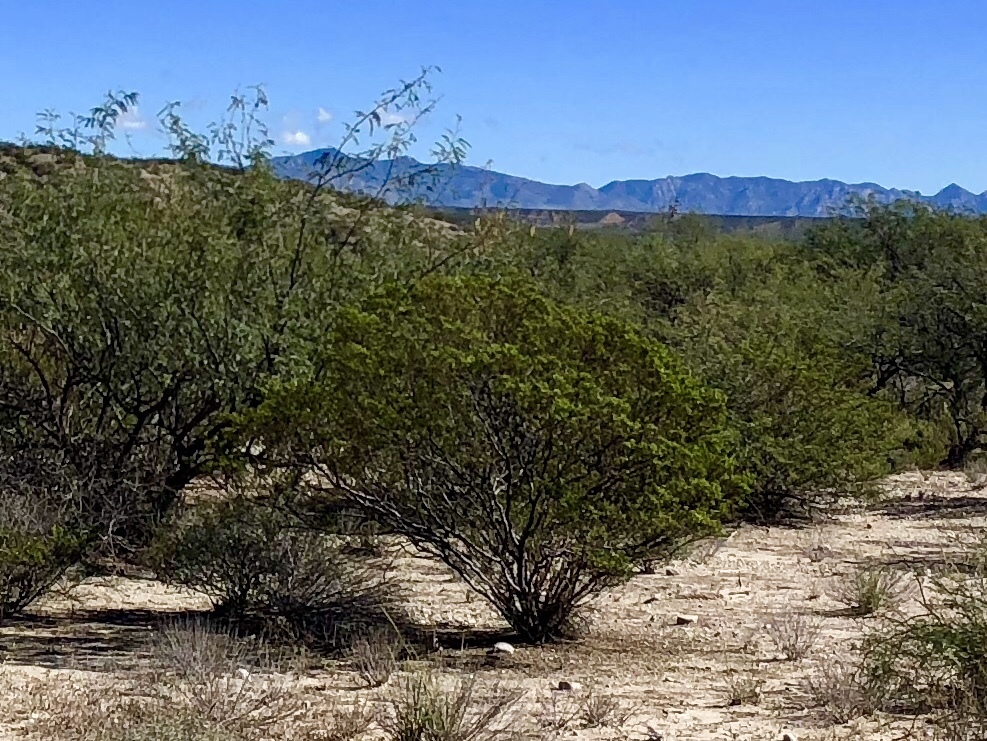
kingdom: Plantae
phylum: Tracheophyta
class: Magnoliopsida
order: Zygophyllales
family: Zygophyllaceae
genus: Larrea
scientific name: Larrea tridentata
